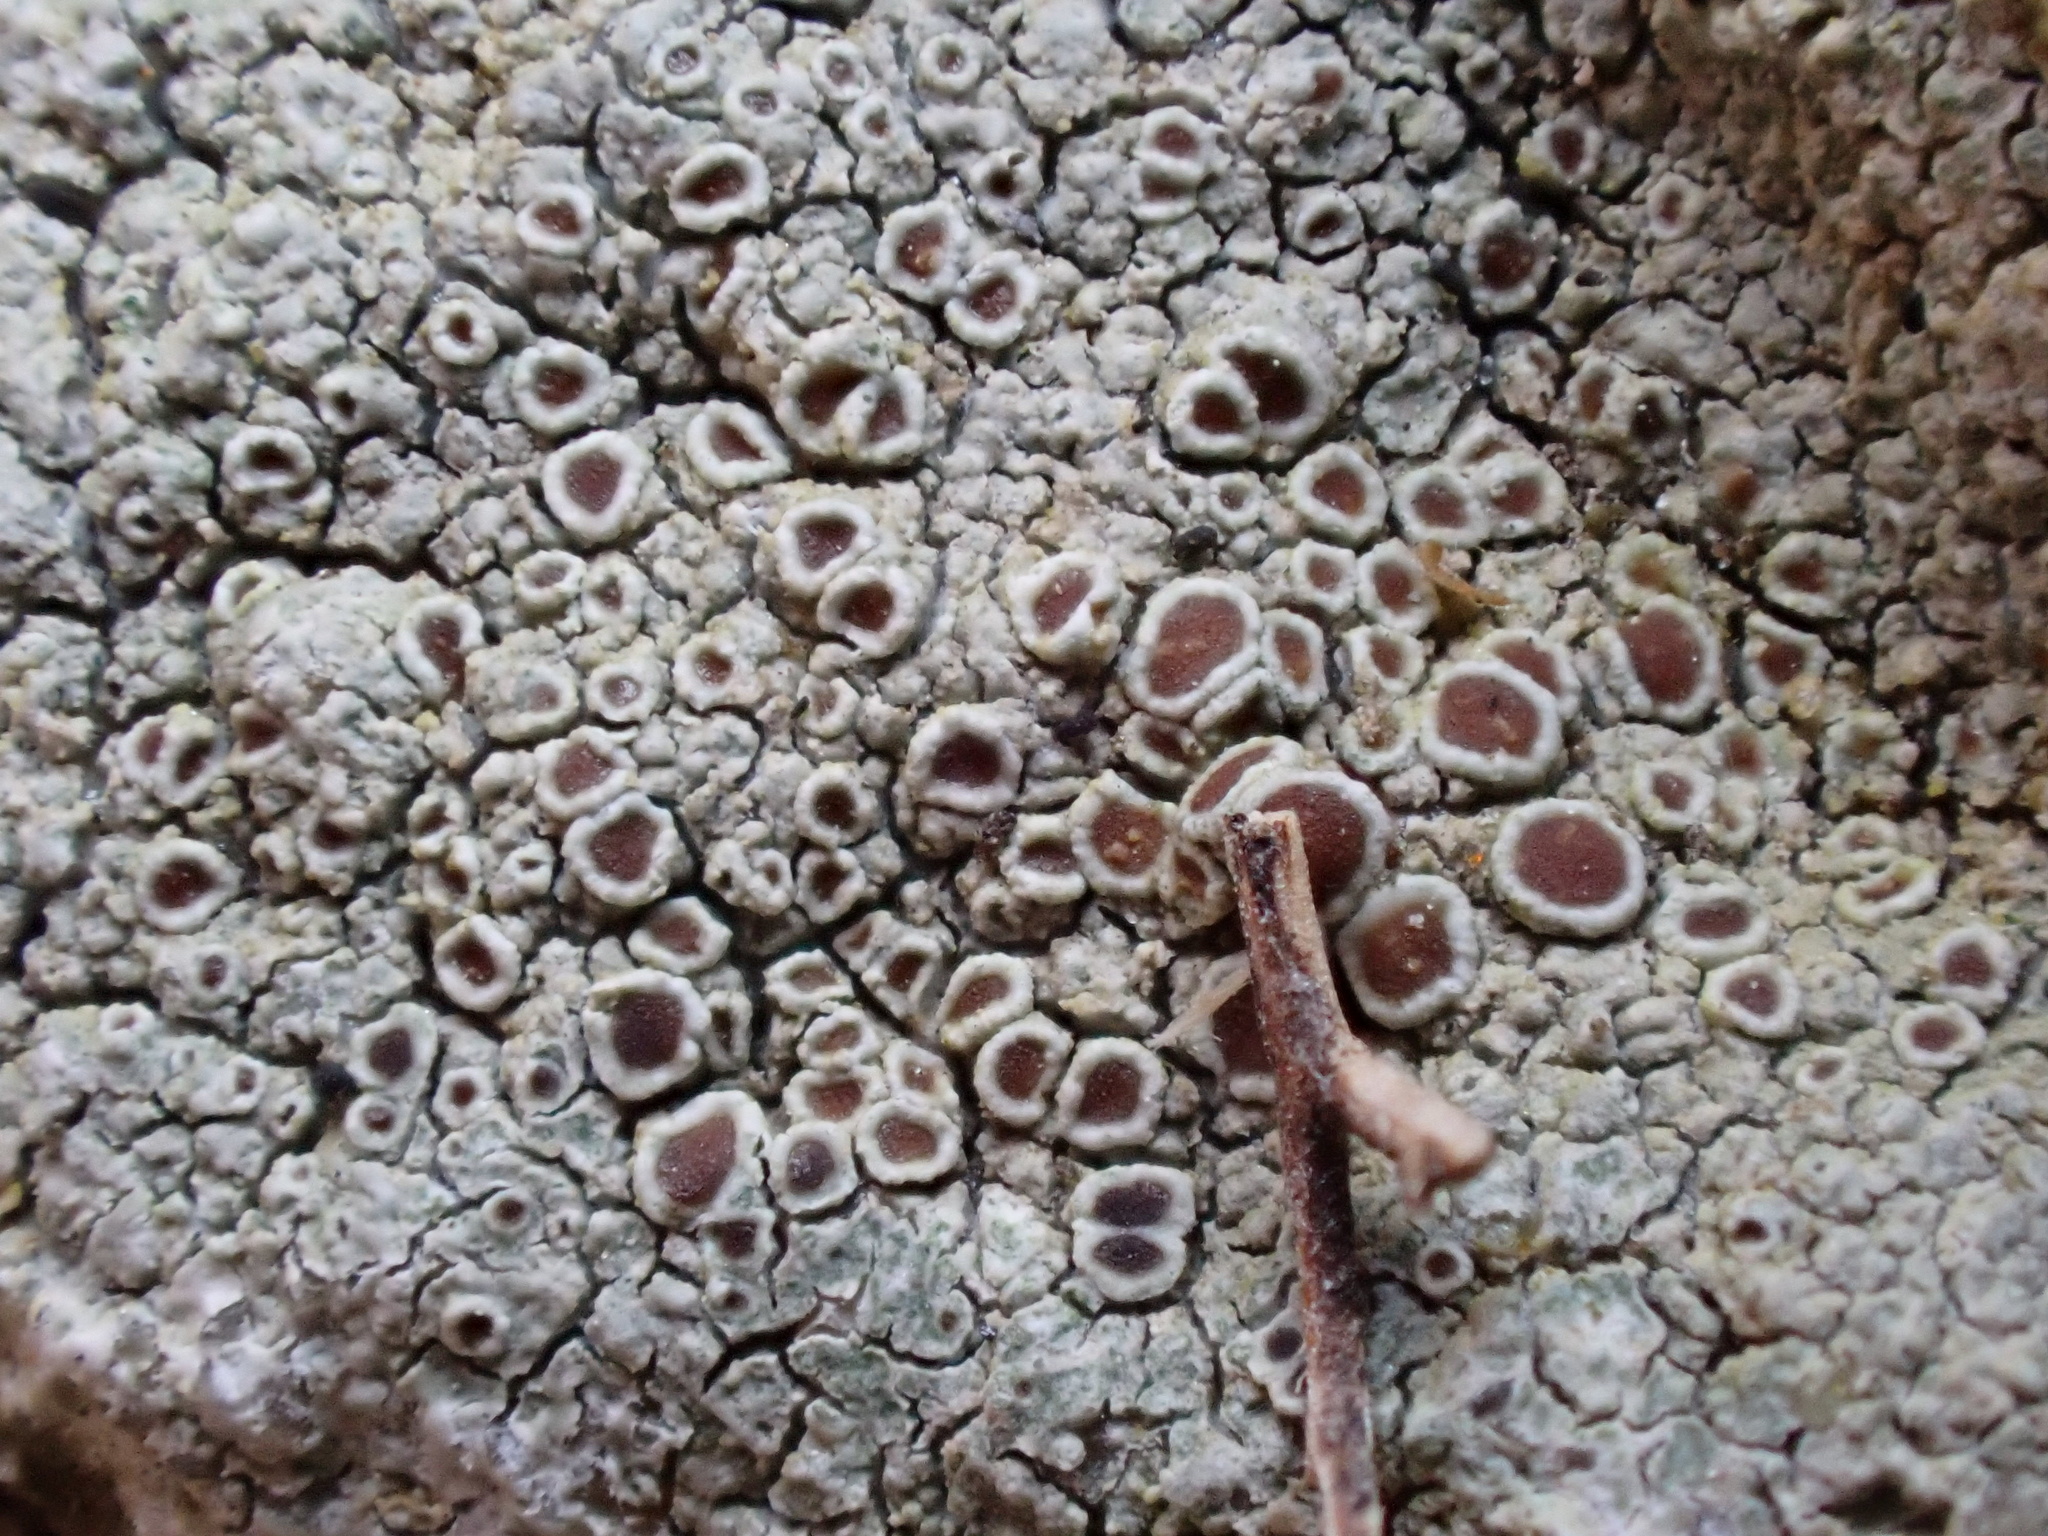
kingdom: Fungi
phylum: Ascomycota
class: Lecanoromycetes
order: Lecanorales
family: Lecanoraceae
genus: Lecanora
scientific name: Lecanora campestris
